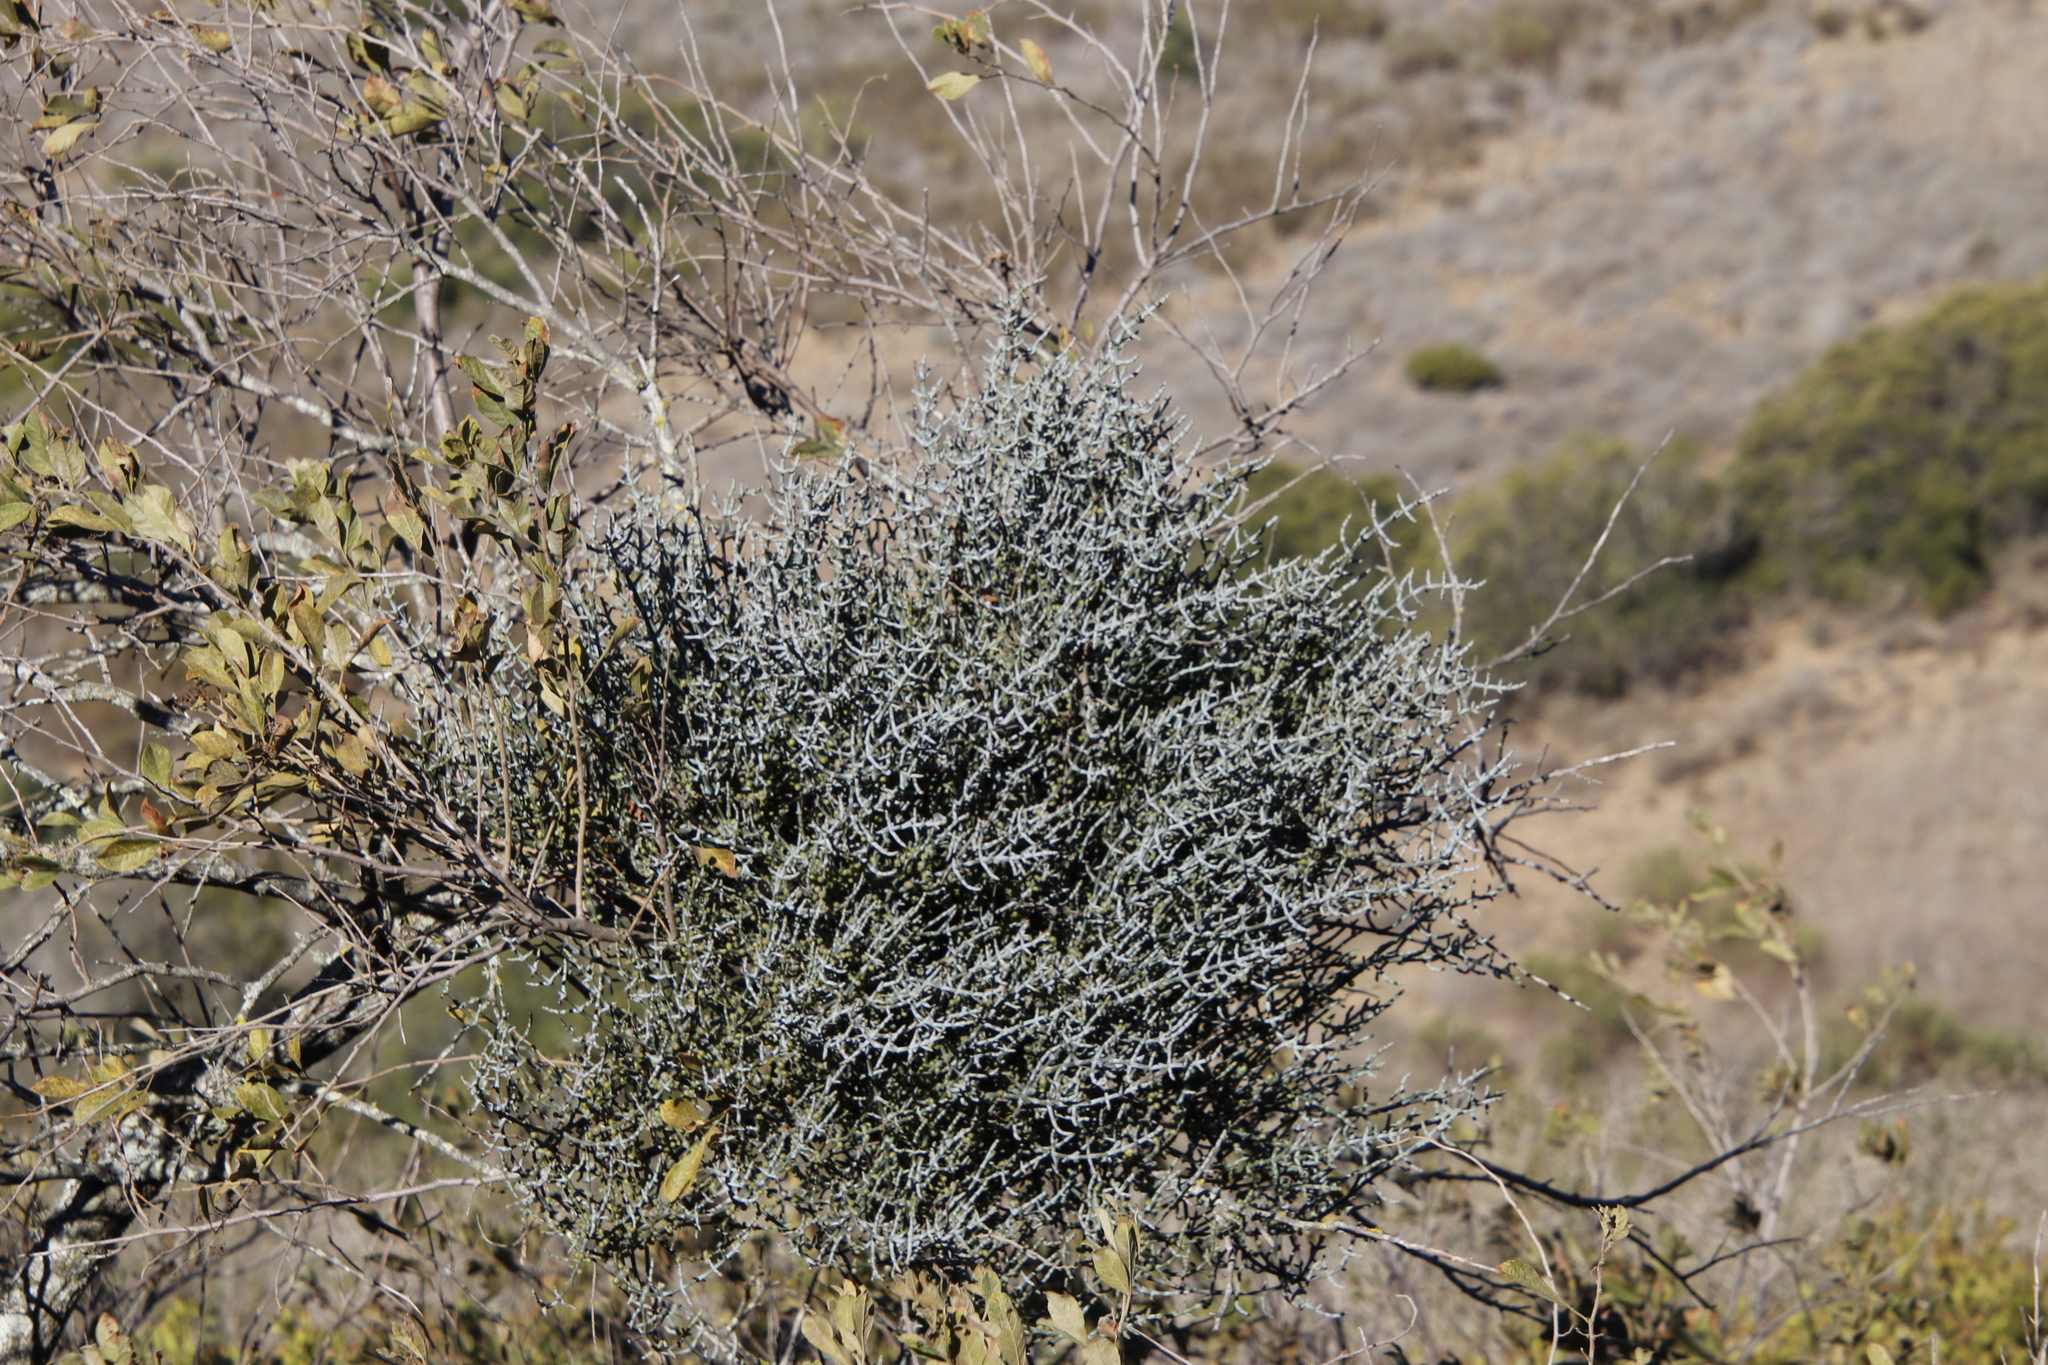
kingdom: Plantae
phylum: Tracheophyta
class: Magnoliopsida
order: Santalales
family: Viscaceae
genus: Viscum
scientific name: Viscum capense
